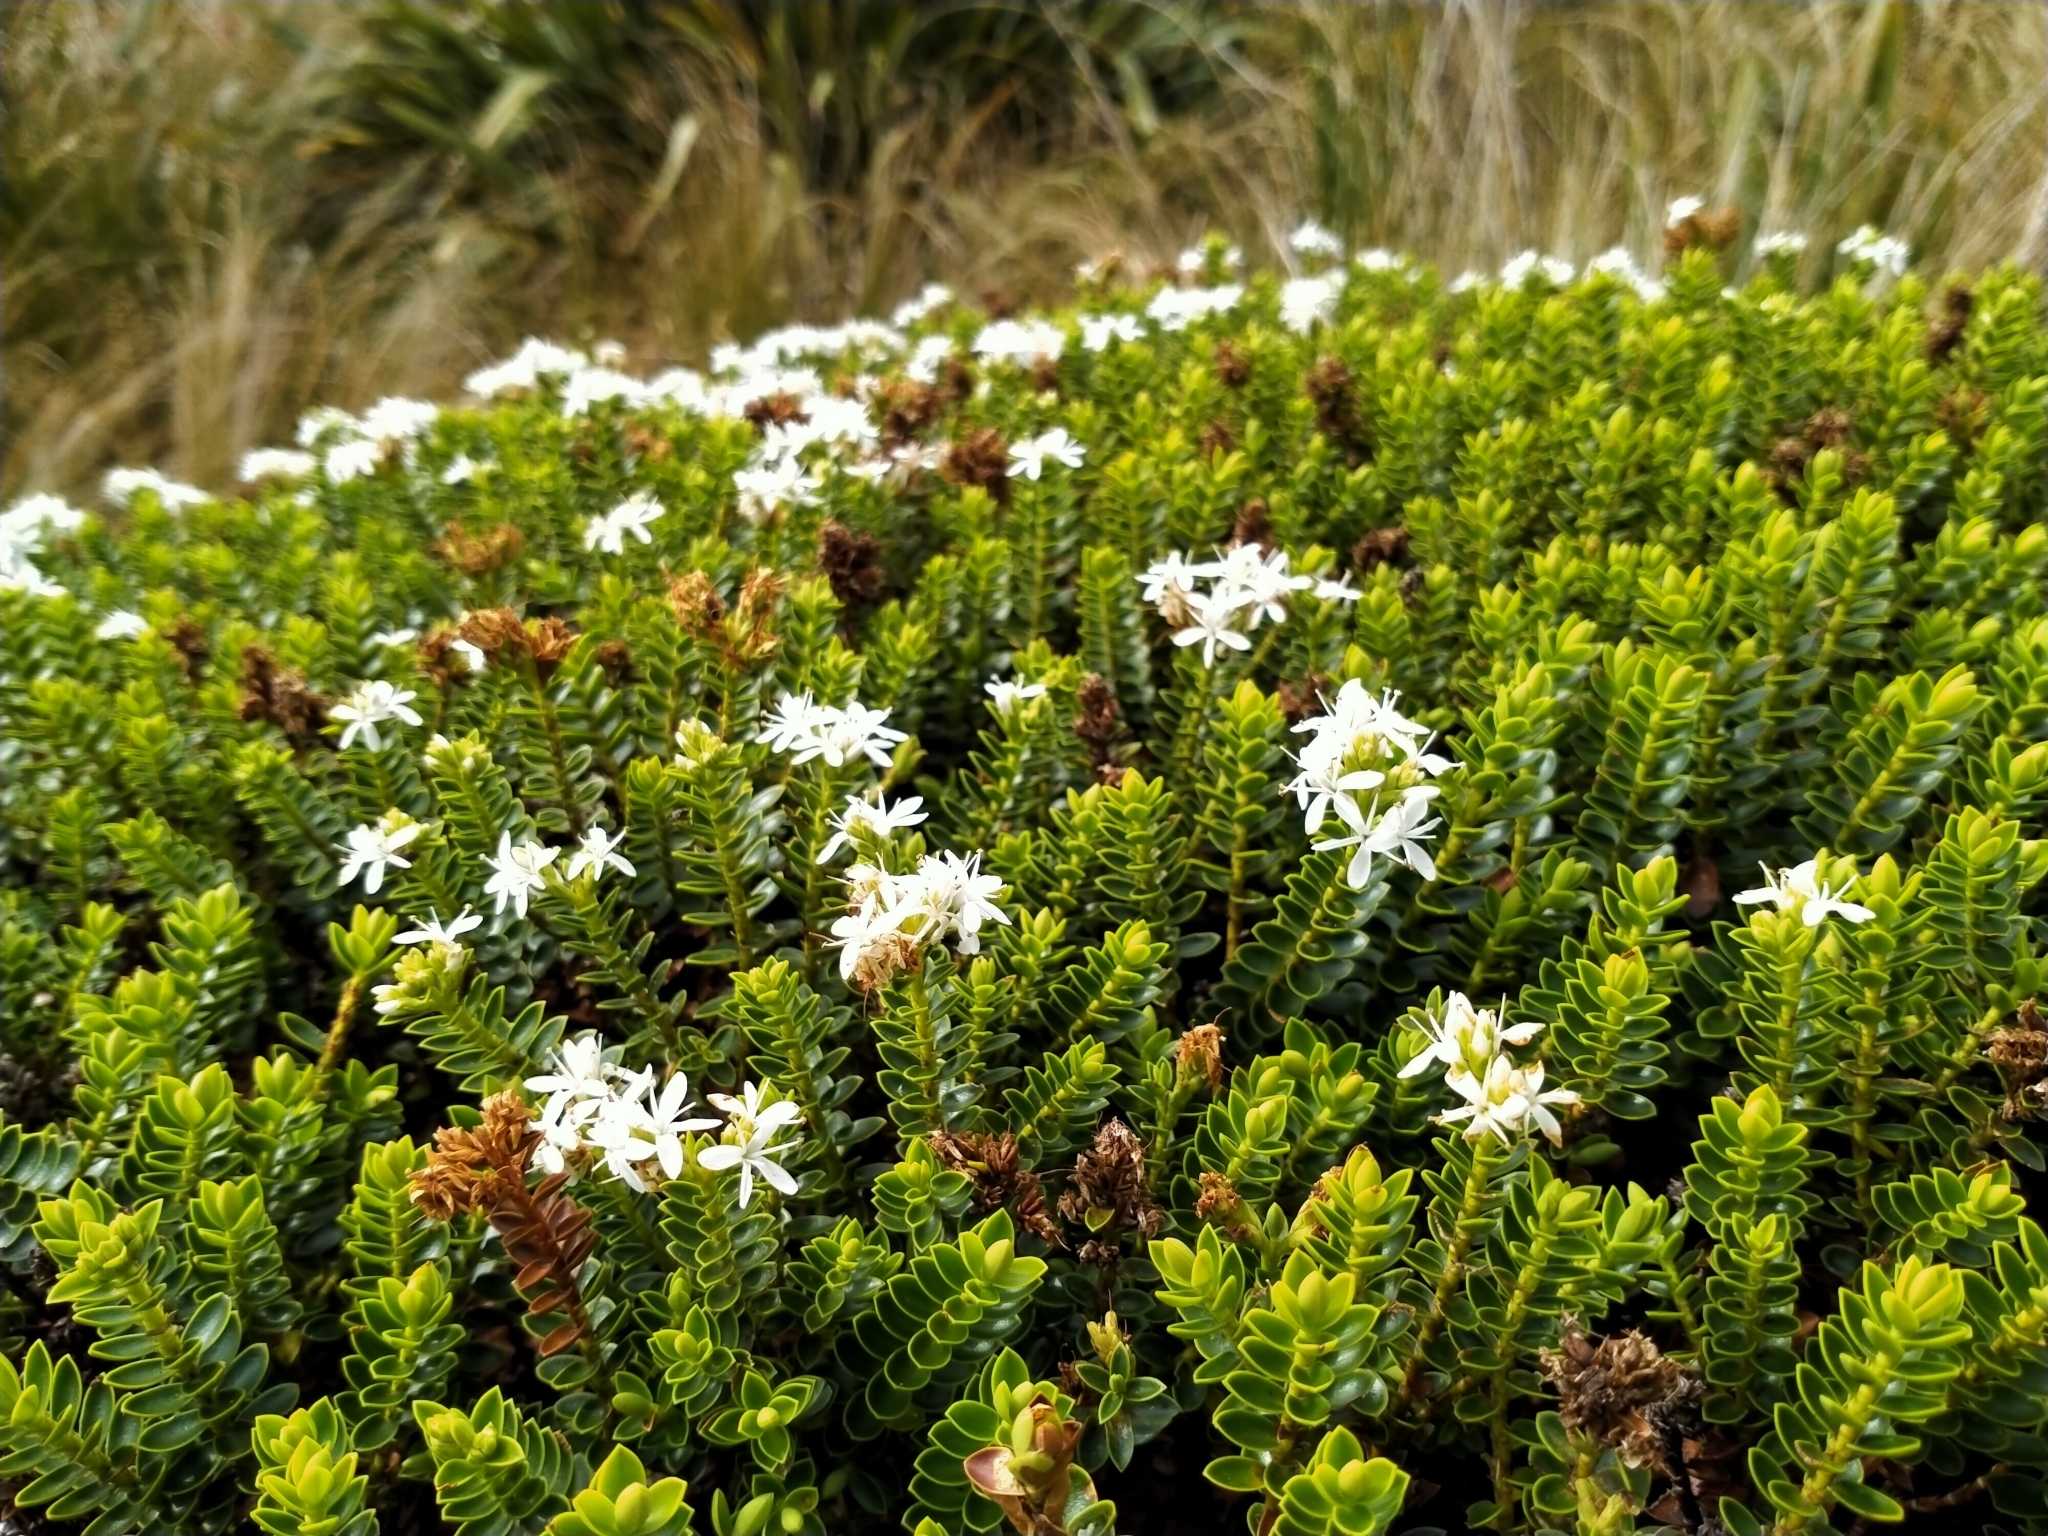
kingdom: Plantae
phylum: Tracheophyta
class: Magnoliopsida
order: Lamiales
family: Plantaginaceae
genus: Veronica
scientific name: Veronica odora
